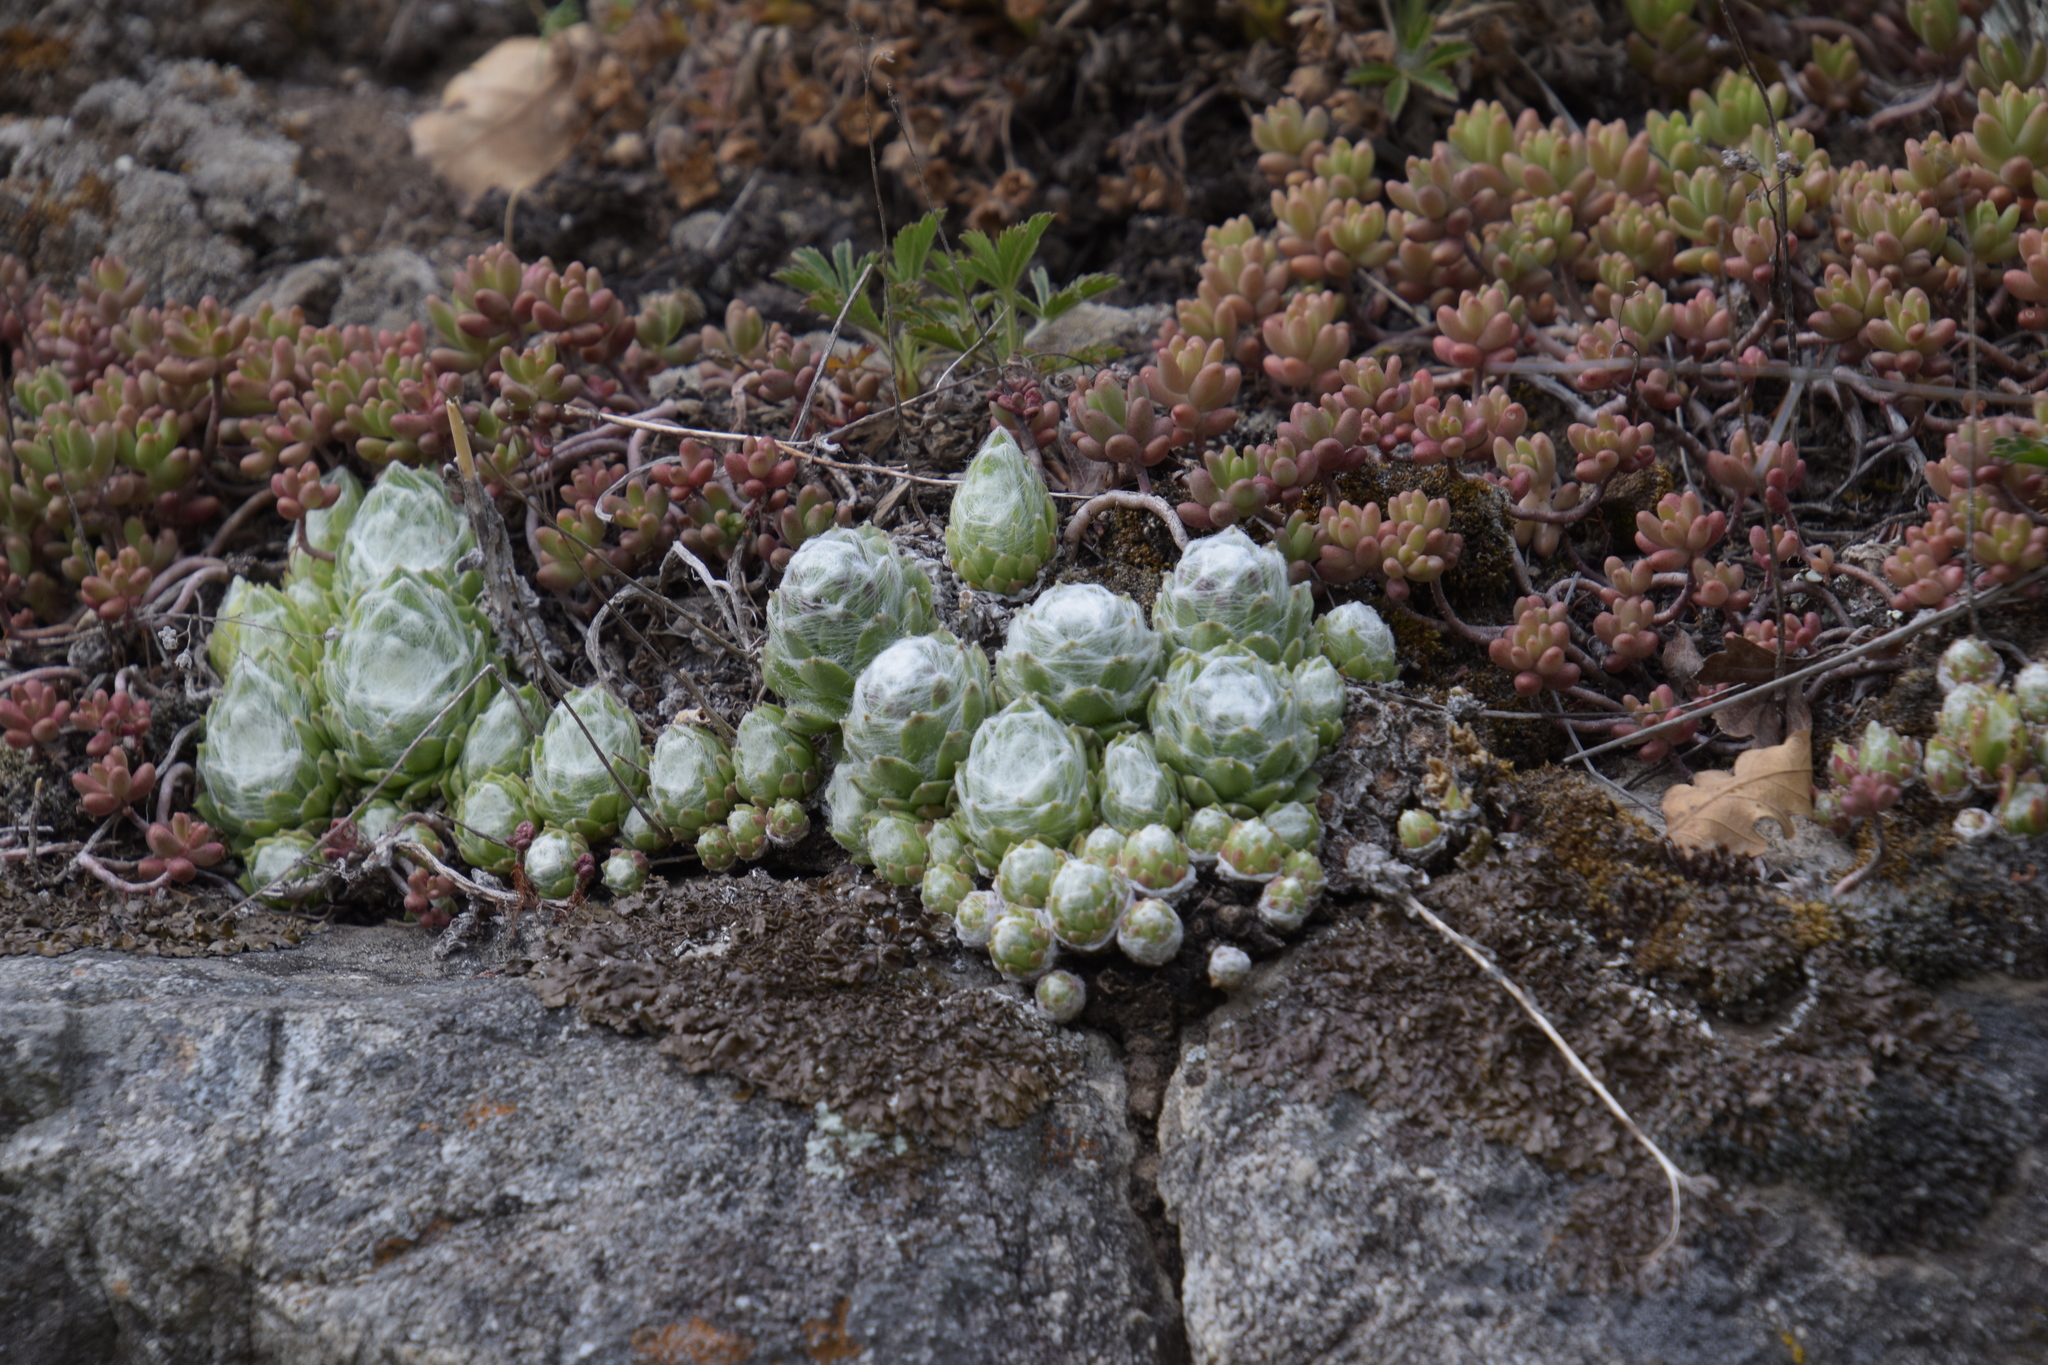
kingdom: Plantae
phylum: Tracheophyta
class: Magnoliopsida
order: Saxifragales
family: Crassulaceae
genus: Sempervivum
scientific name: Sempervivum arachnoideum
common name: Cobweb house-leek
